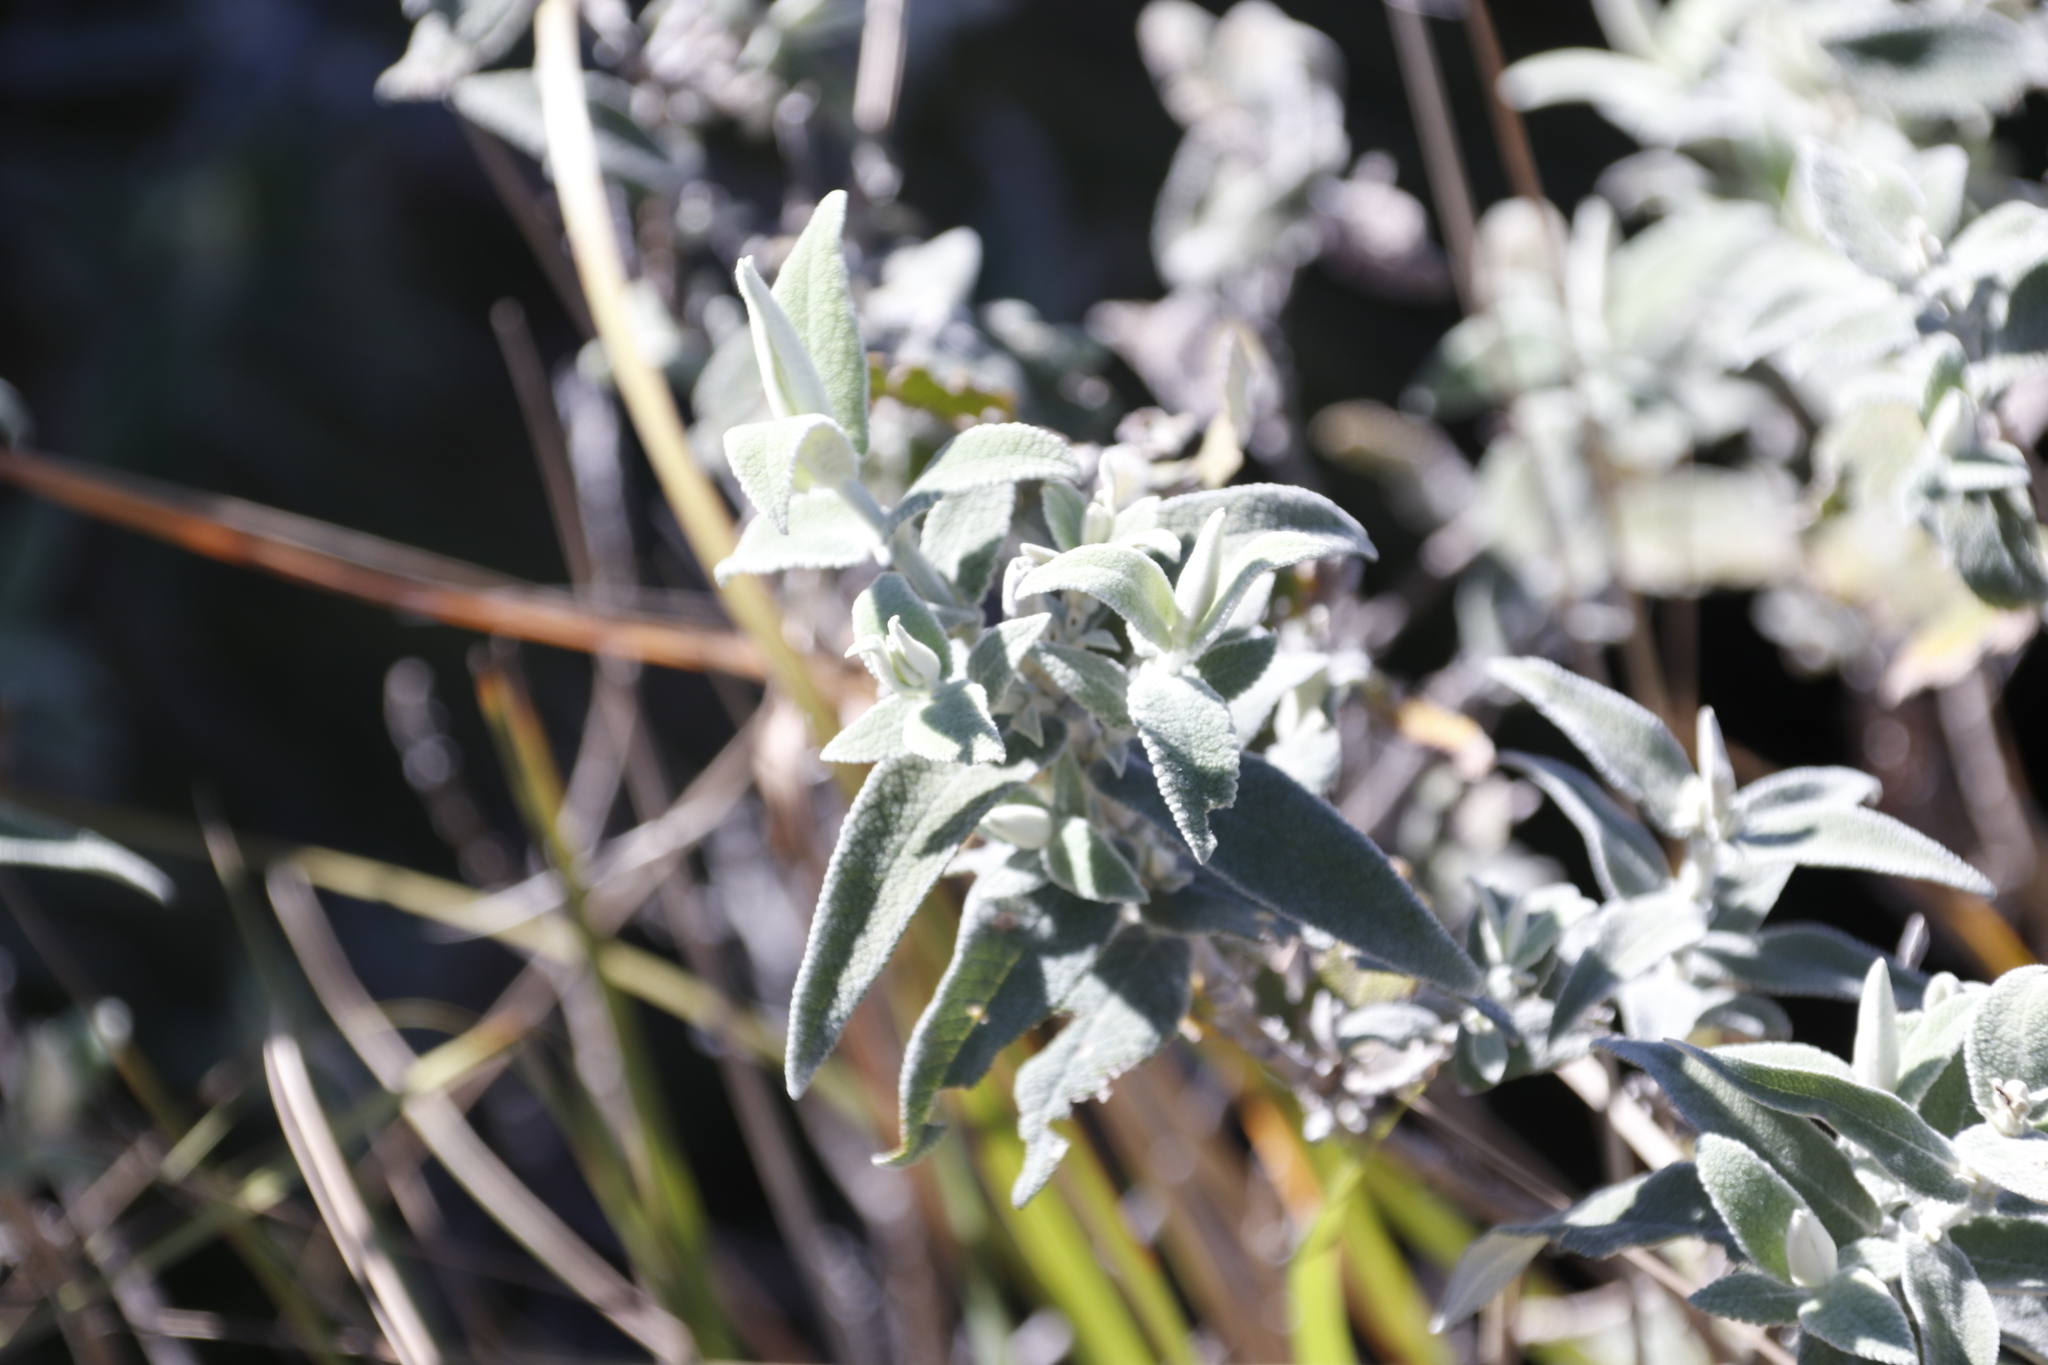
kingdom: Plantae
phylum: Tracheophyta
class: Magnoliopsida
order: Lamiales
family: Scrophulariaceae
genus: Buddleja
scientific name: Buddleja salviifolia
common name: Sagewood
